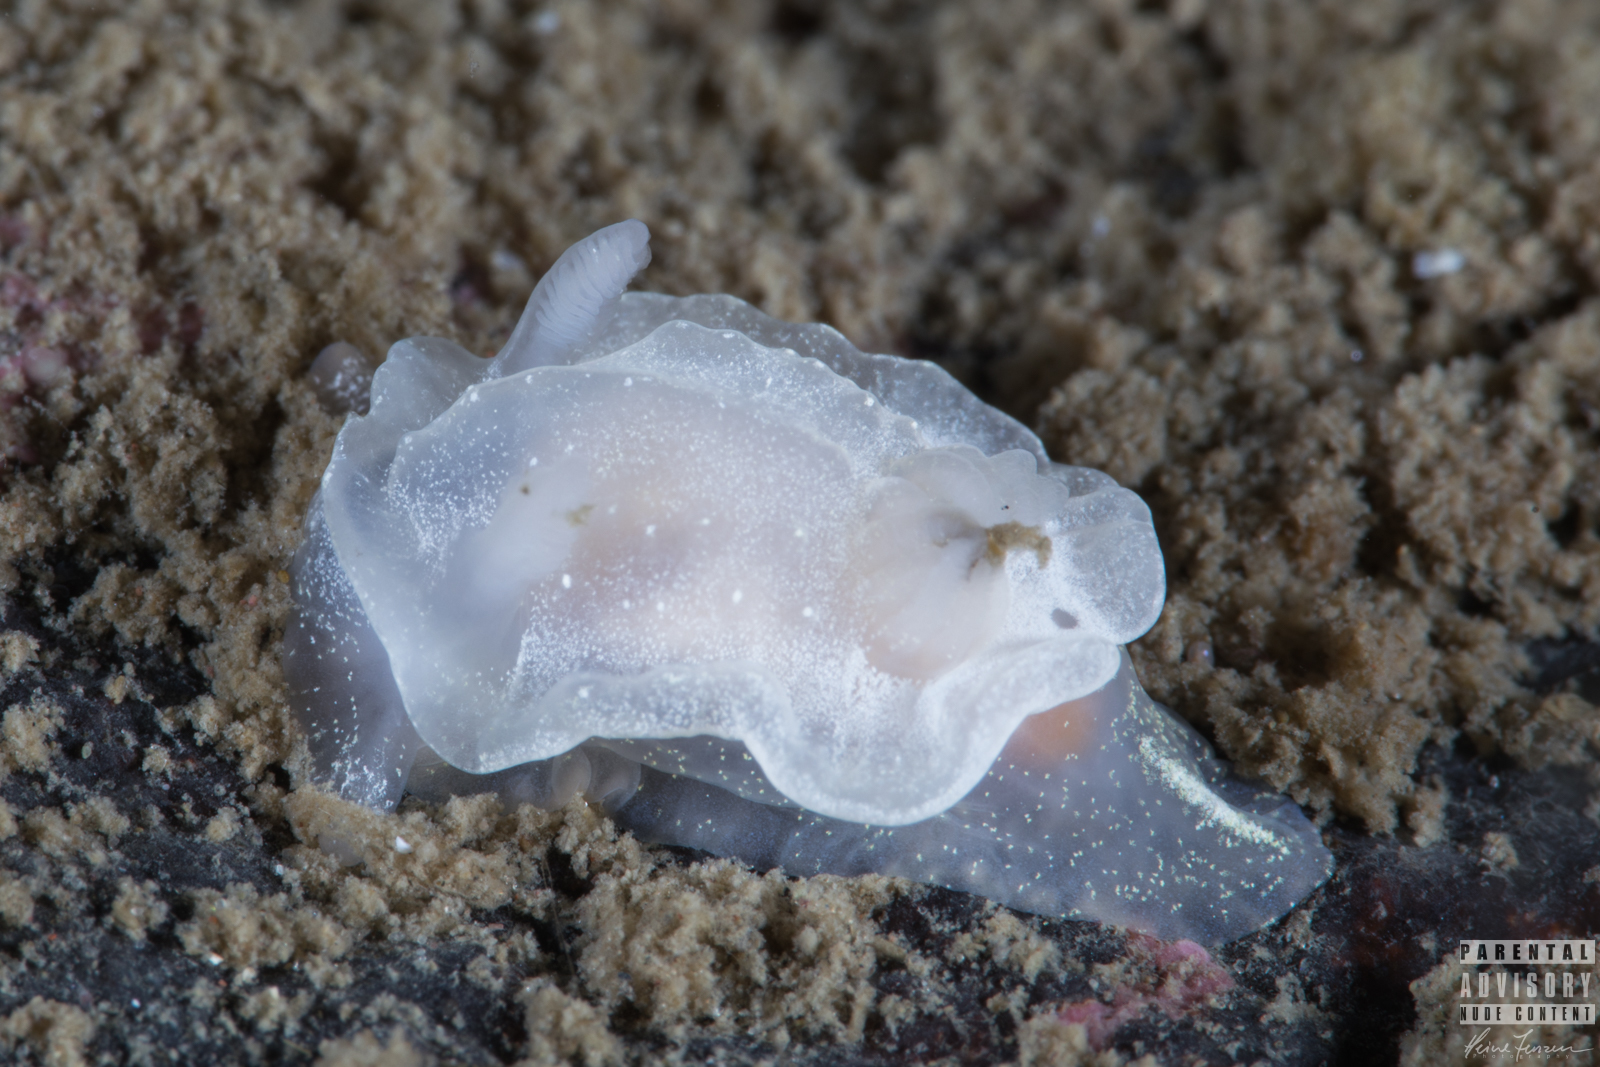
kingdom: Animalia
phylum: Mollusca
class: Gastropoda
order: Nudibranchia
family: Goniodorididae
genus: Okenia
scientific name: Okenia
